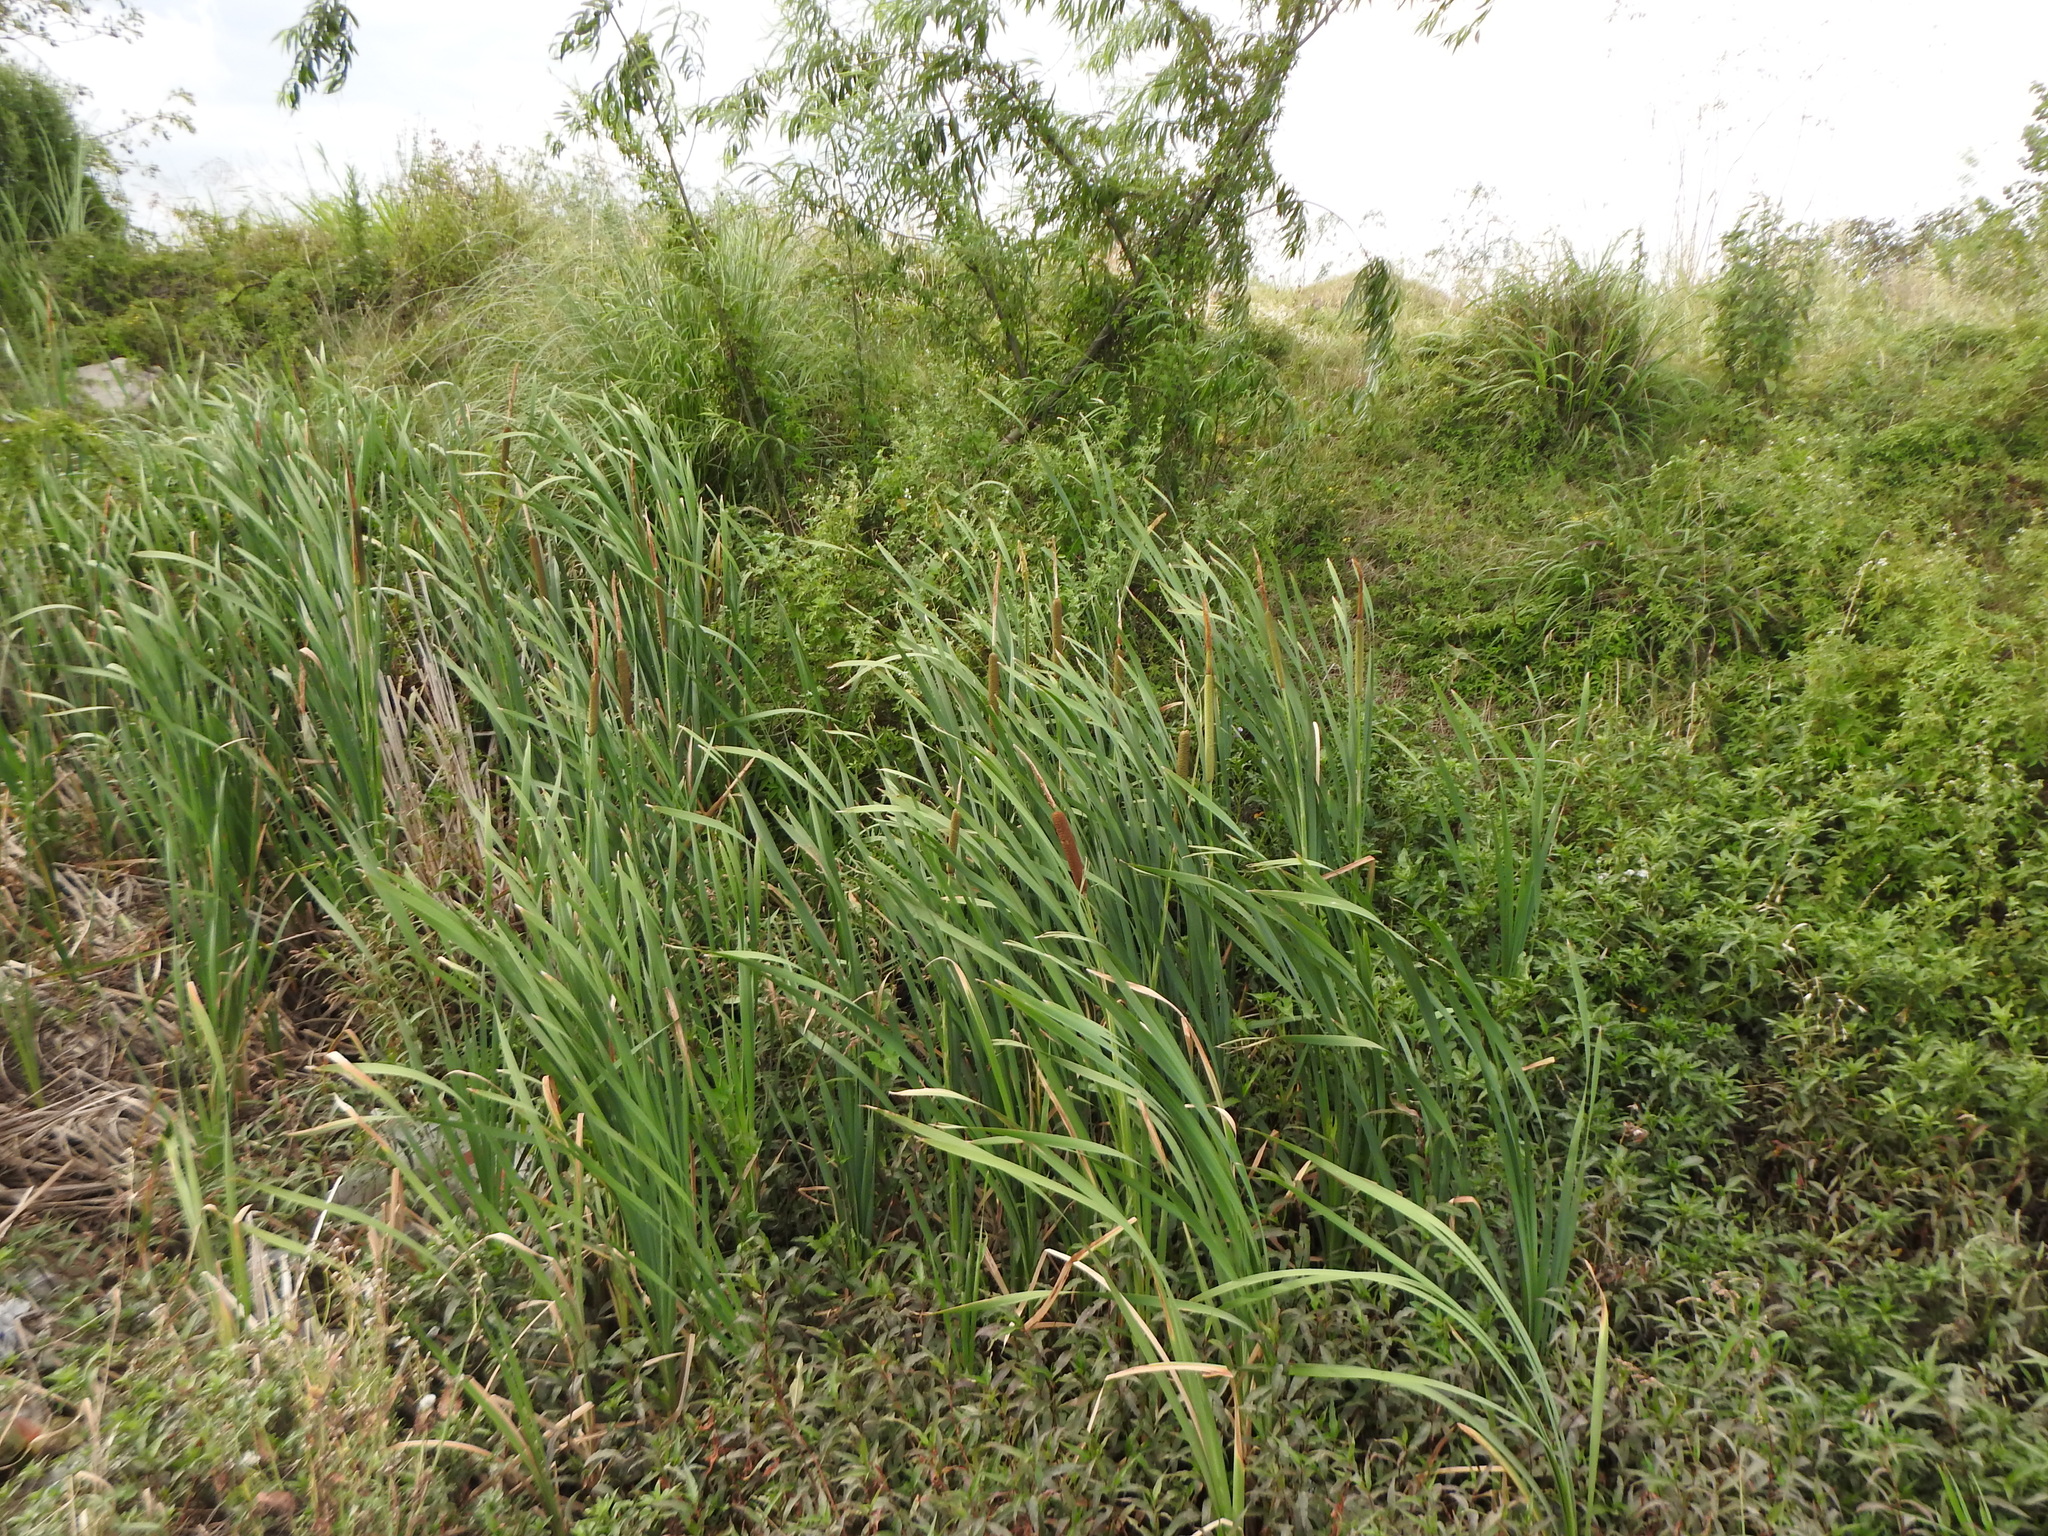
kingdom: Plantae
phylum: Tracheophyta
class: Liliopsida
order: Poales
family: Typhaceae
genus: Typha
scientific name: Typha latifolia
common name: Broadleaf cattail
